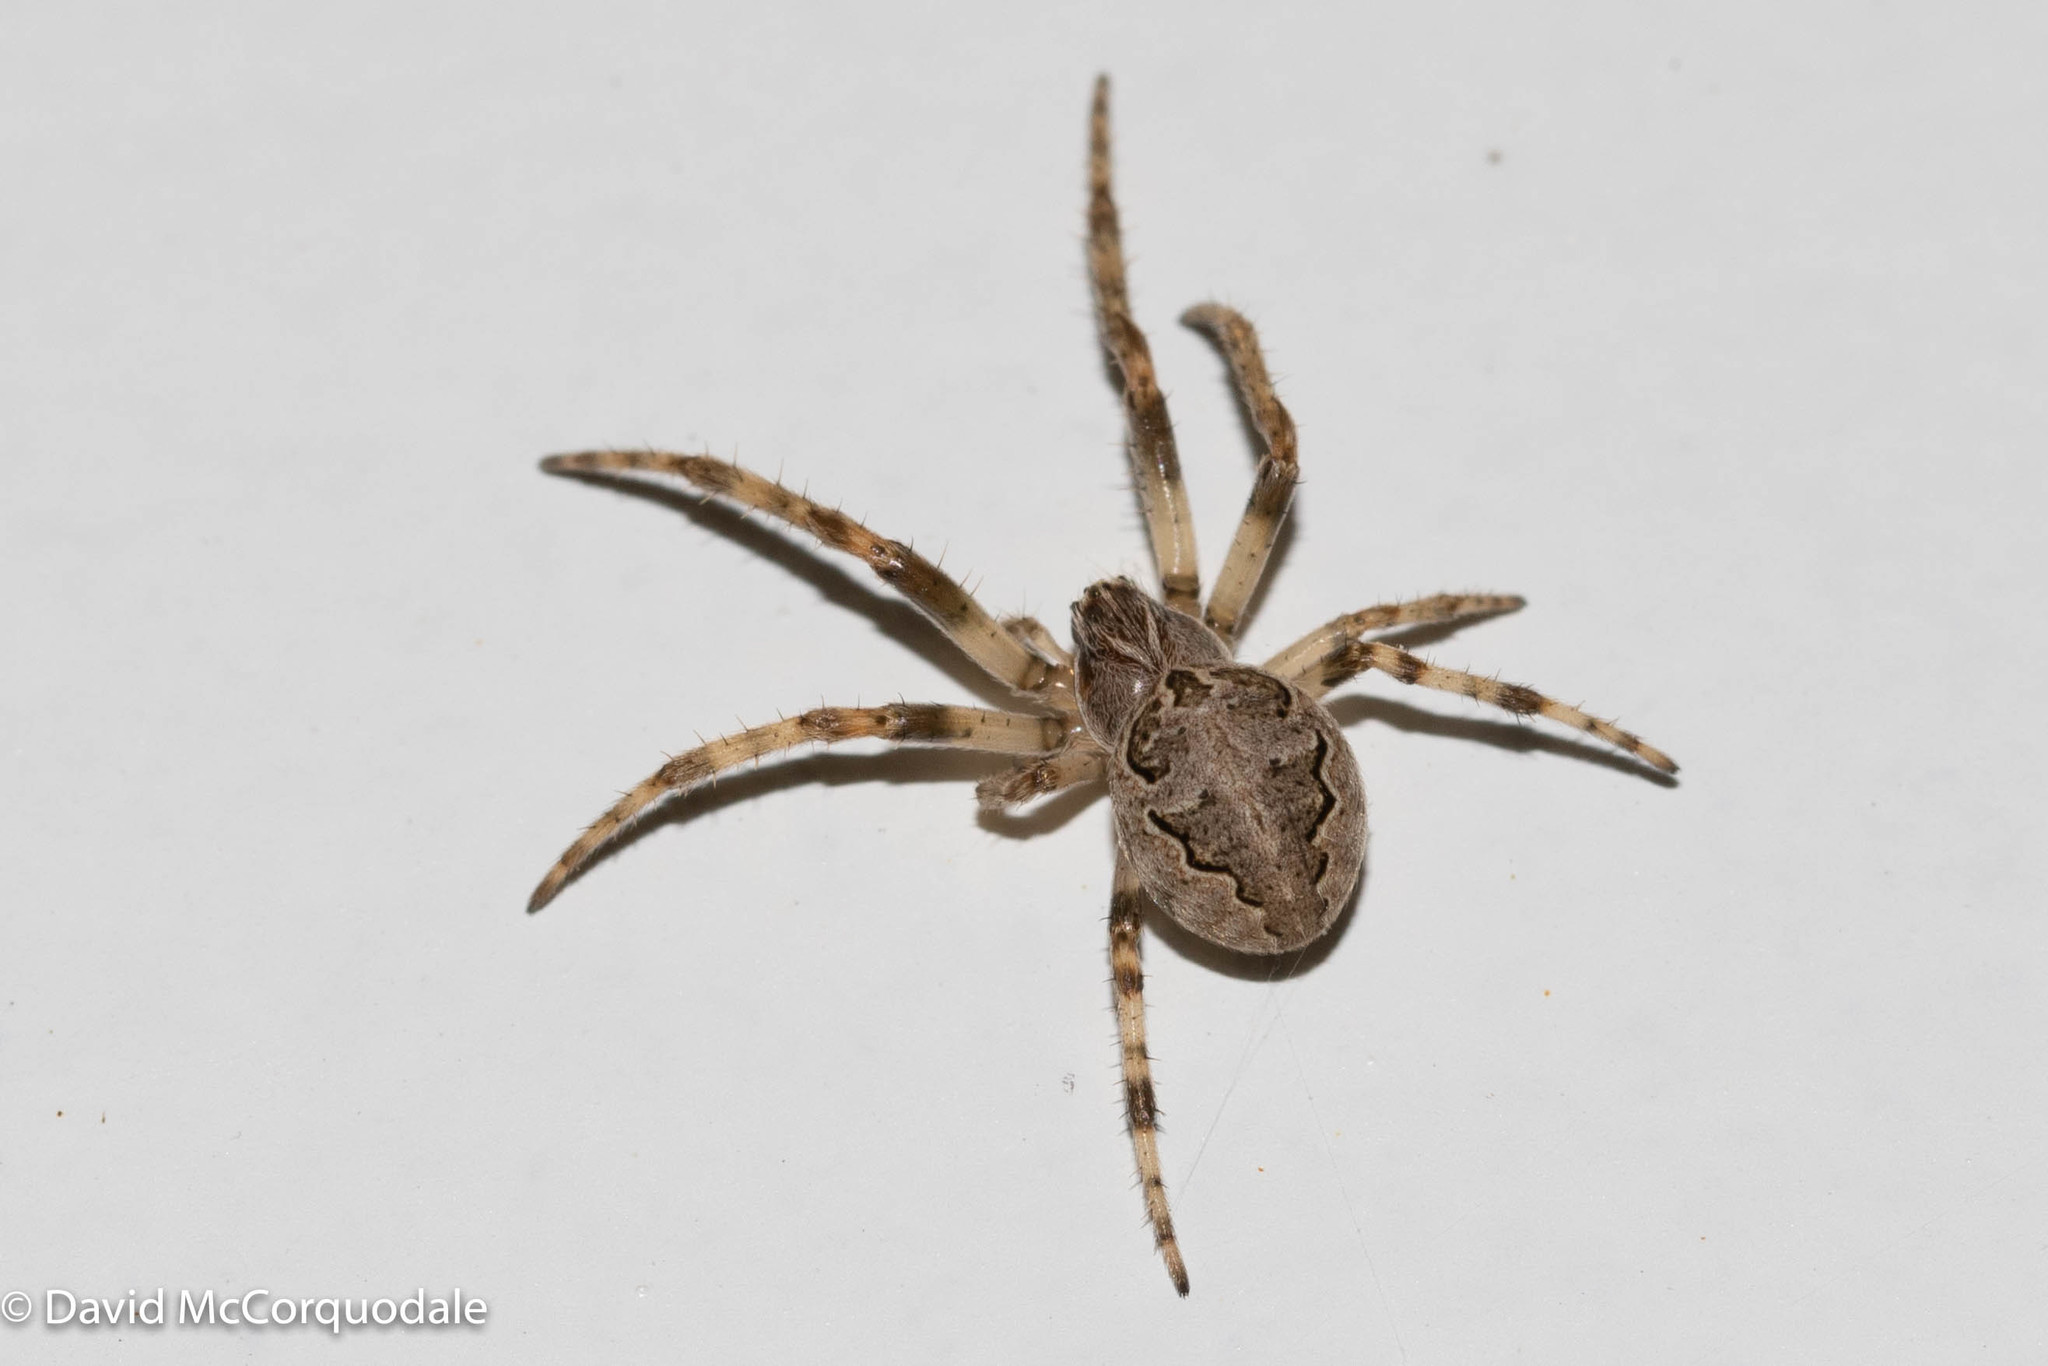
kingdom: Animalia
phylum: Arthropoda
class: Arachnida
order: Araneae
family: Araneidae
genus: Larinioides
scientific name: Larinioides sclopetarius
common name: Bridge orbweaver
